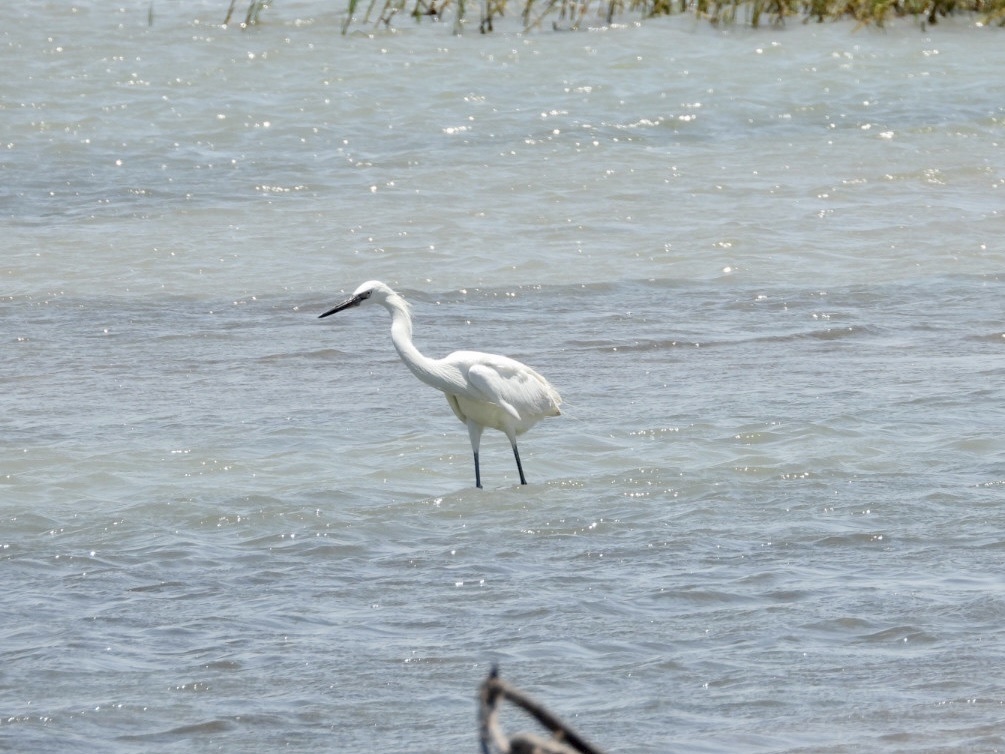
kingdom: Animalia
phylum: Chordata
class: Aves
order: Pelecaniformes
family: Ardeidae
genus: Egretta
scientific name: Egretta rufescens
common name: Reddish egret
